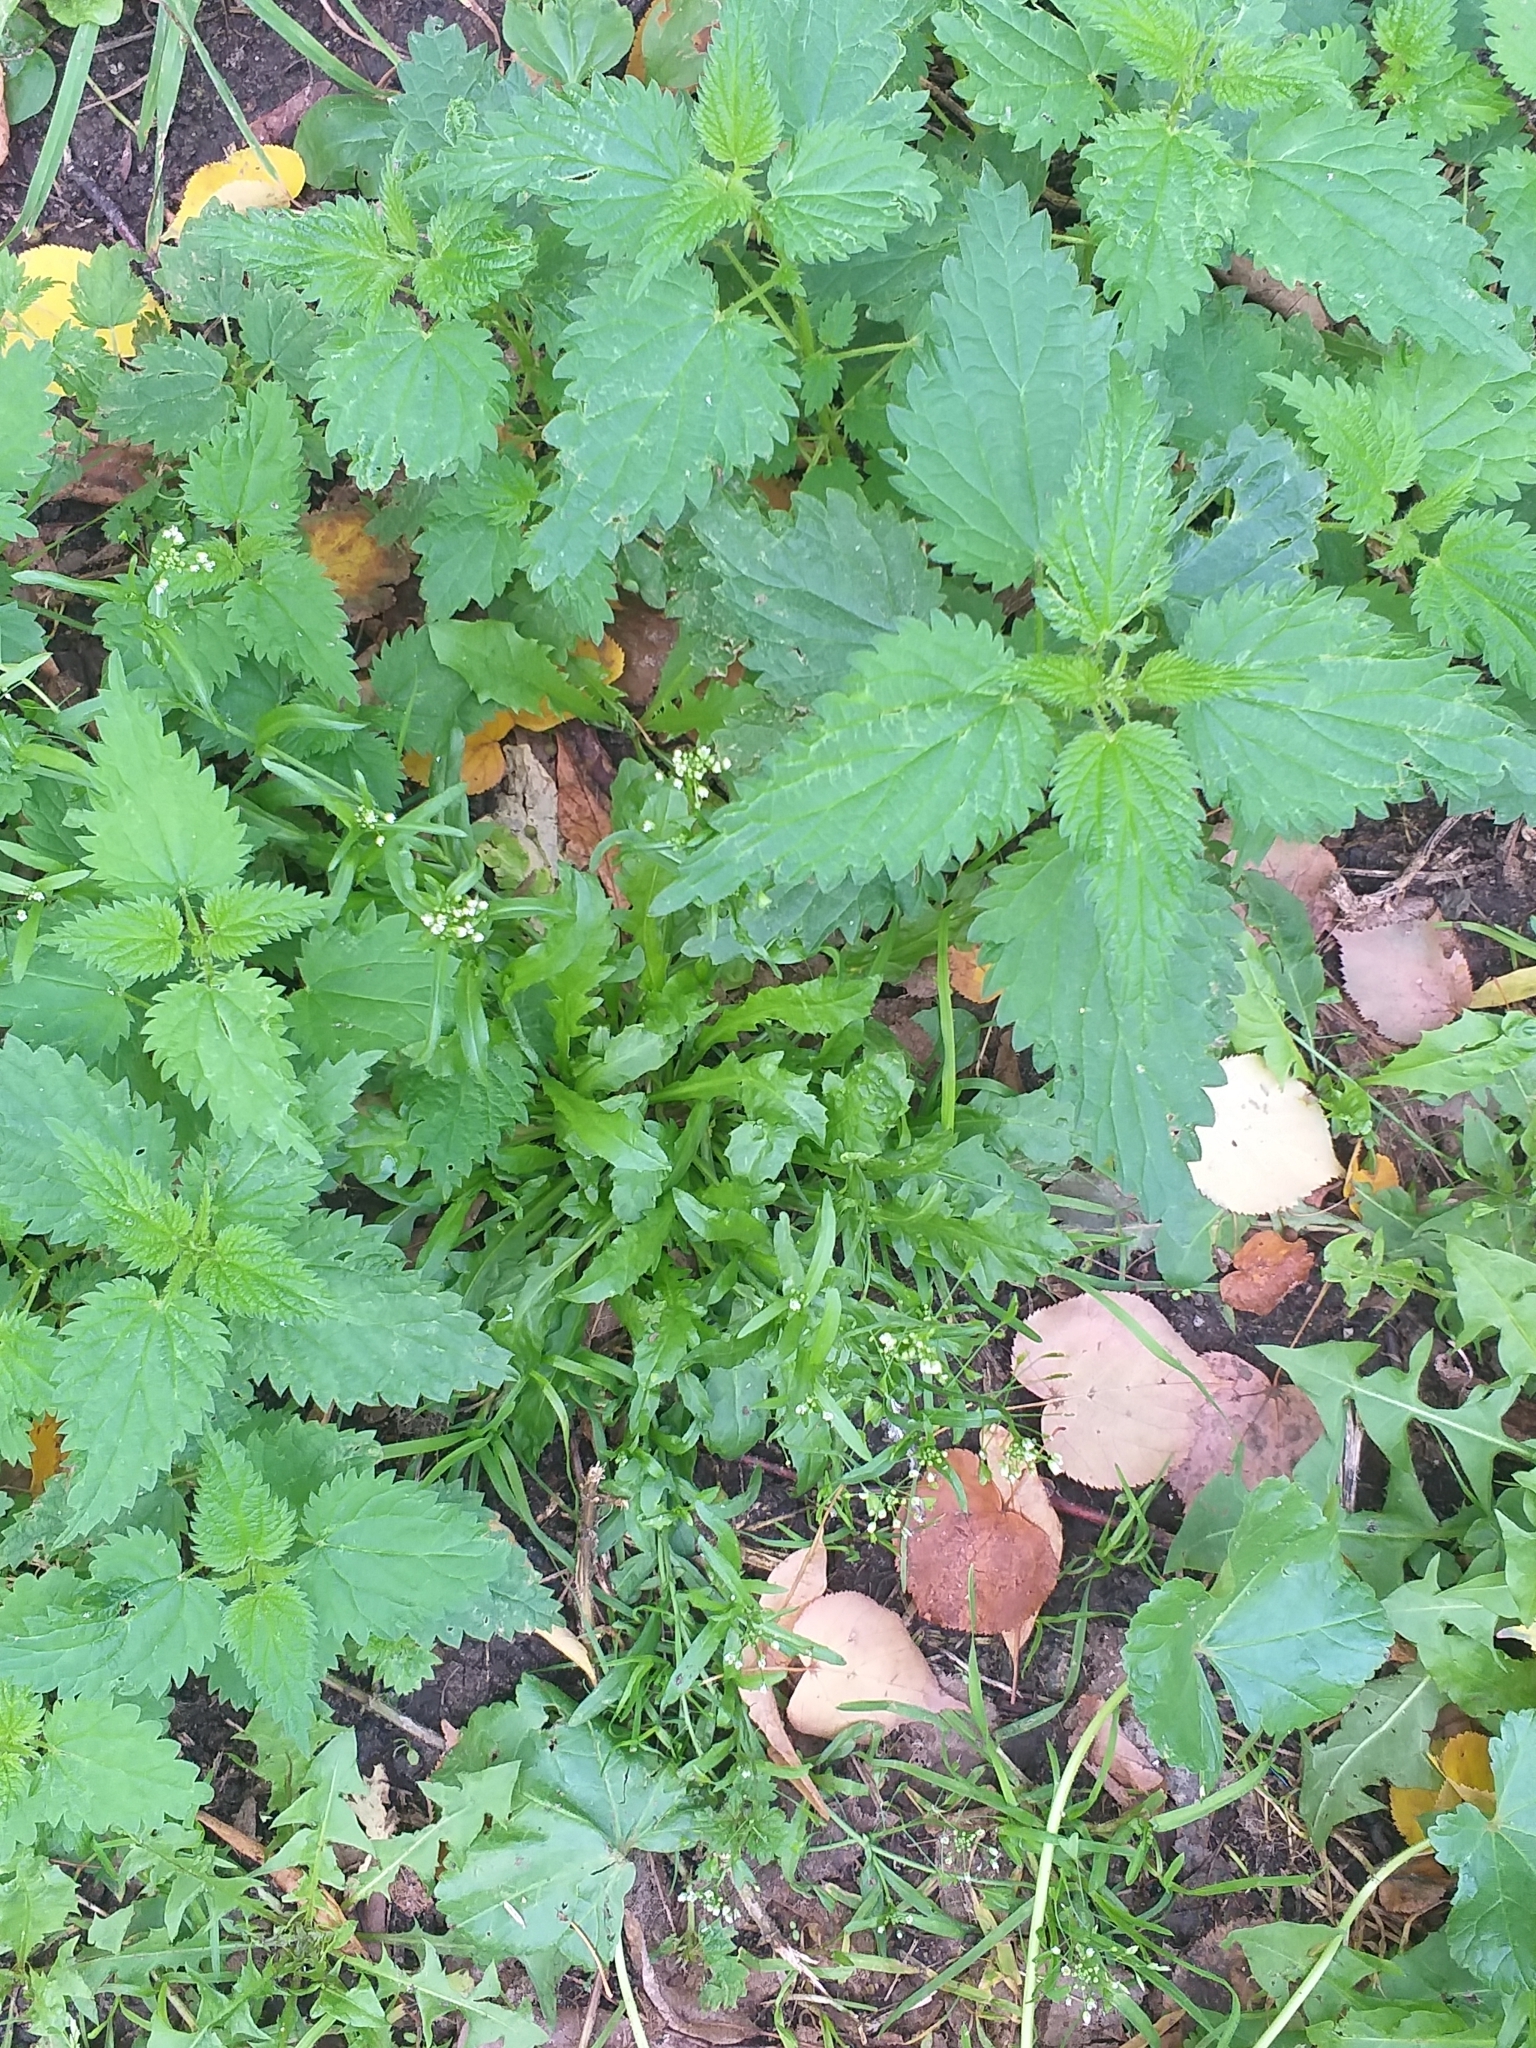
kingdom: Plantae
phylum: Tracheophyta
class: Magnoliopsida
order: Brassicales
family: Brassicaceae
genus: Capsella
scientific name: Capsella bursa-pastoris
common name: Shepherd's purse
